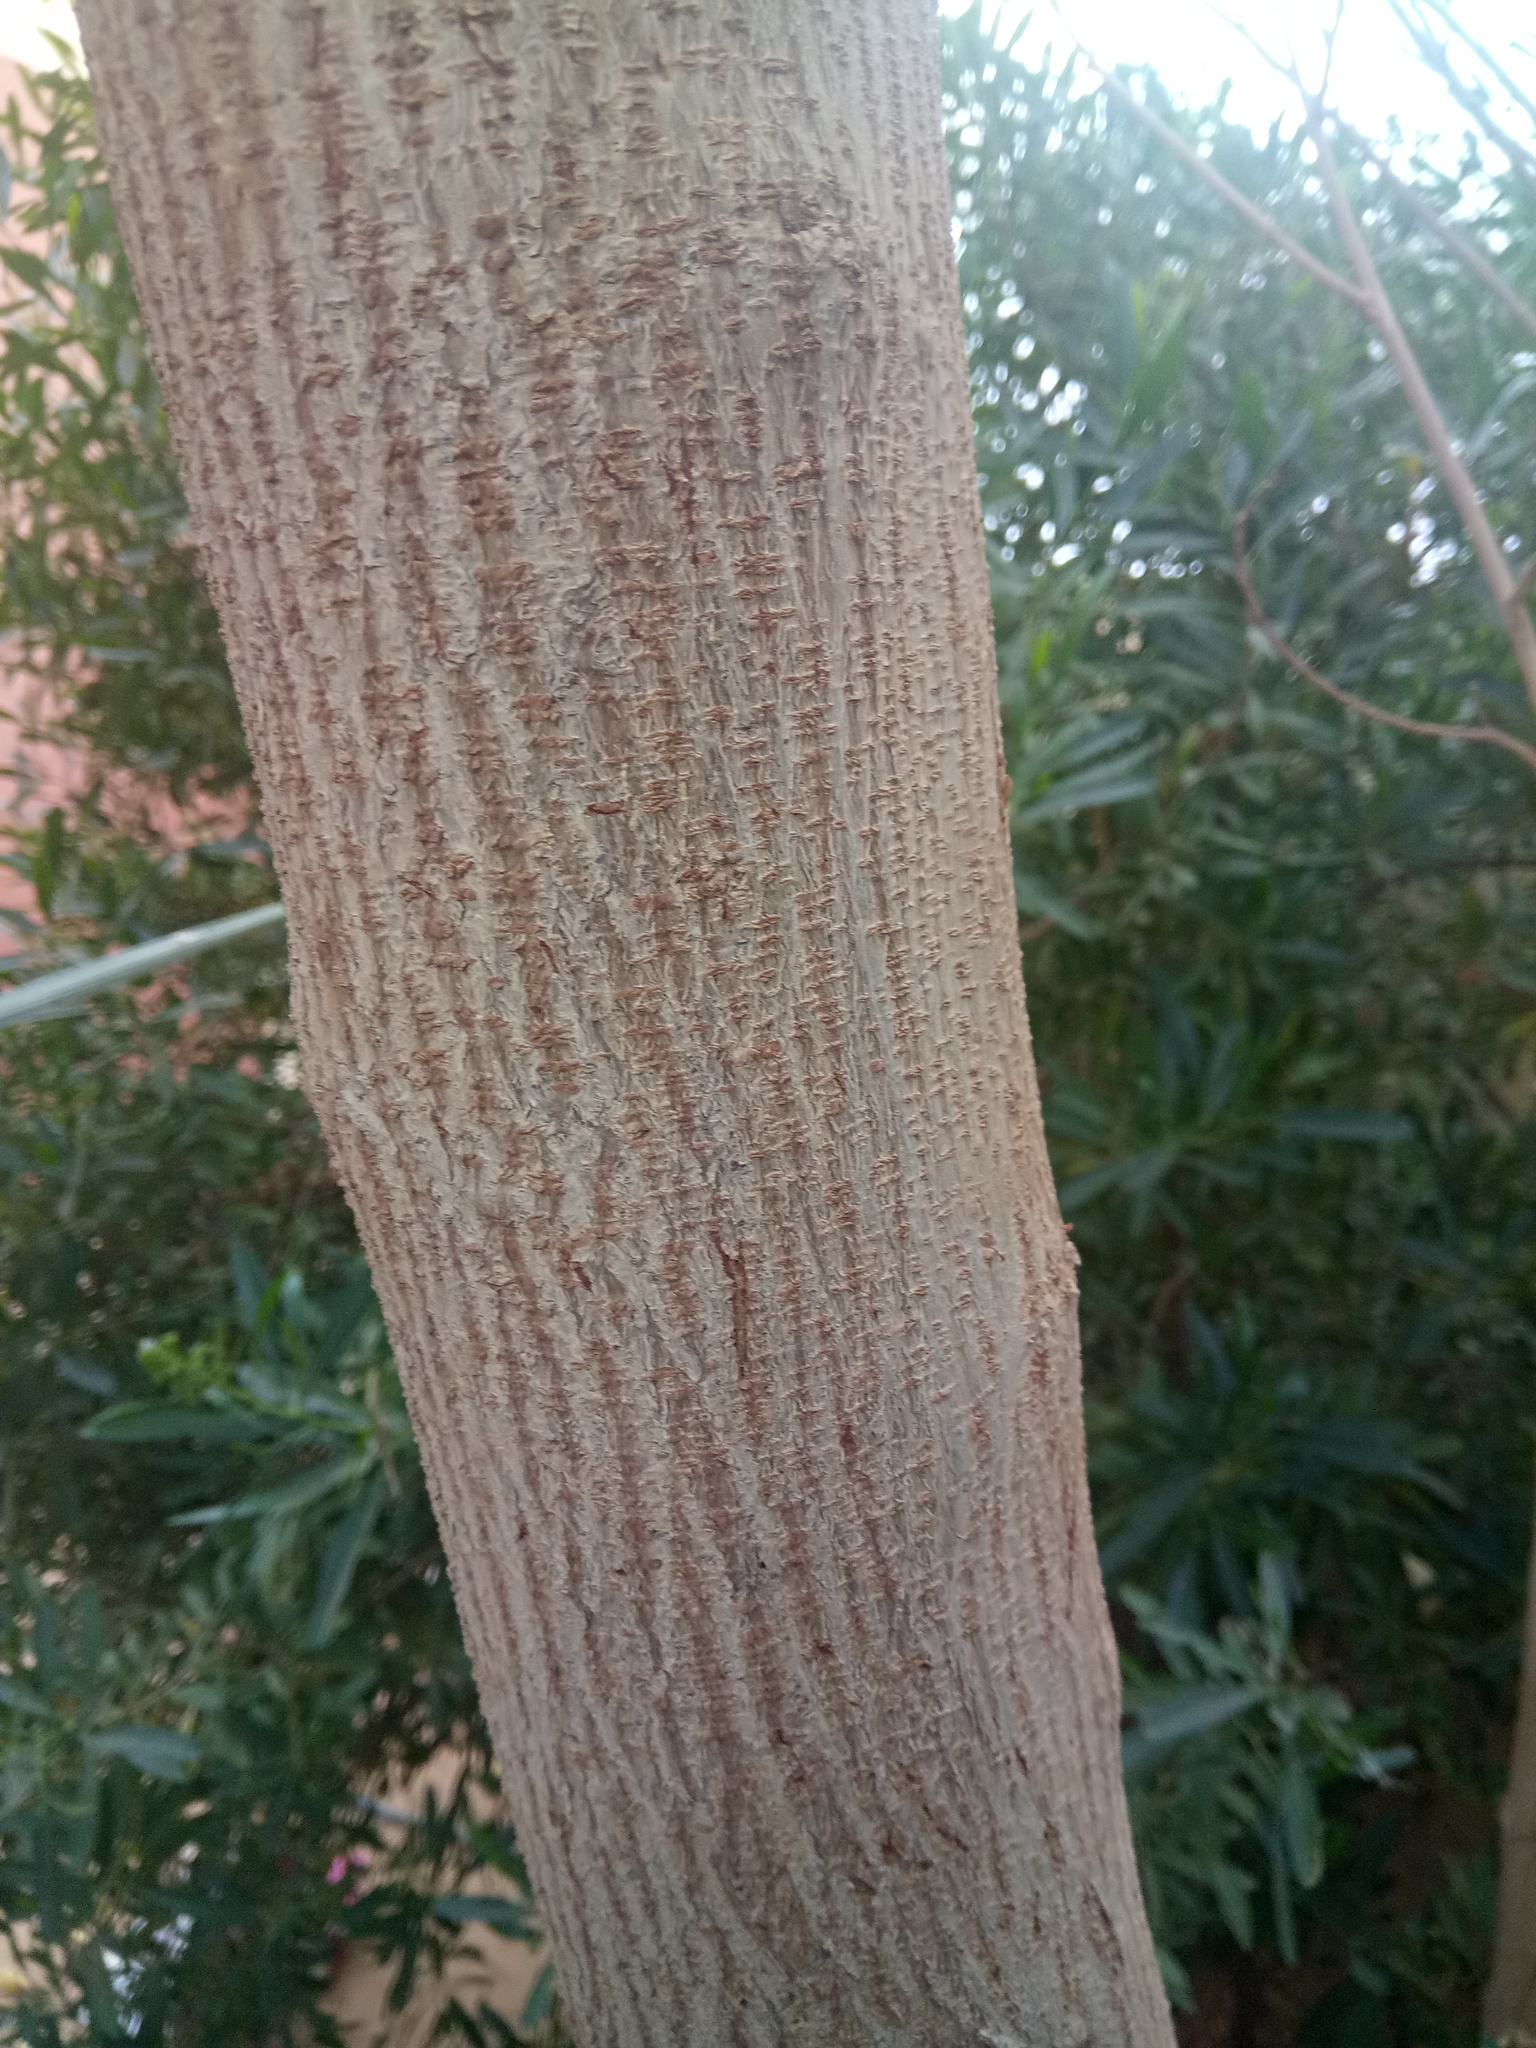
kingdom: Plantae
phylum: Tracheophyta
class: Magnoliopsida
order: Fabales
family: Fabaceae
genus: Albizia
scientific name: Albizia julibrissin
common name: Silktree
